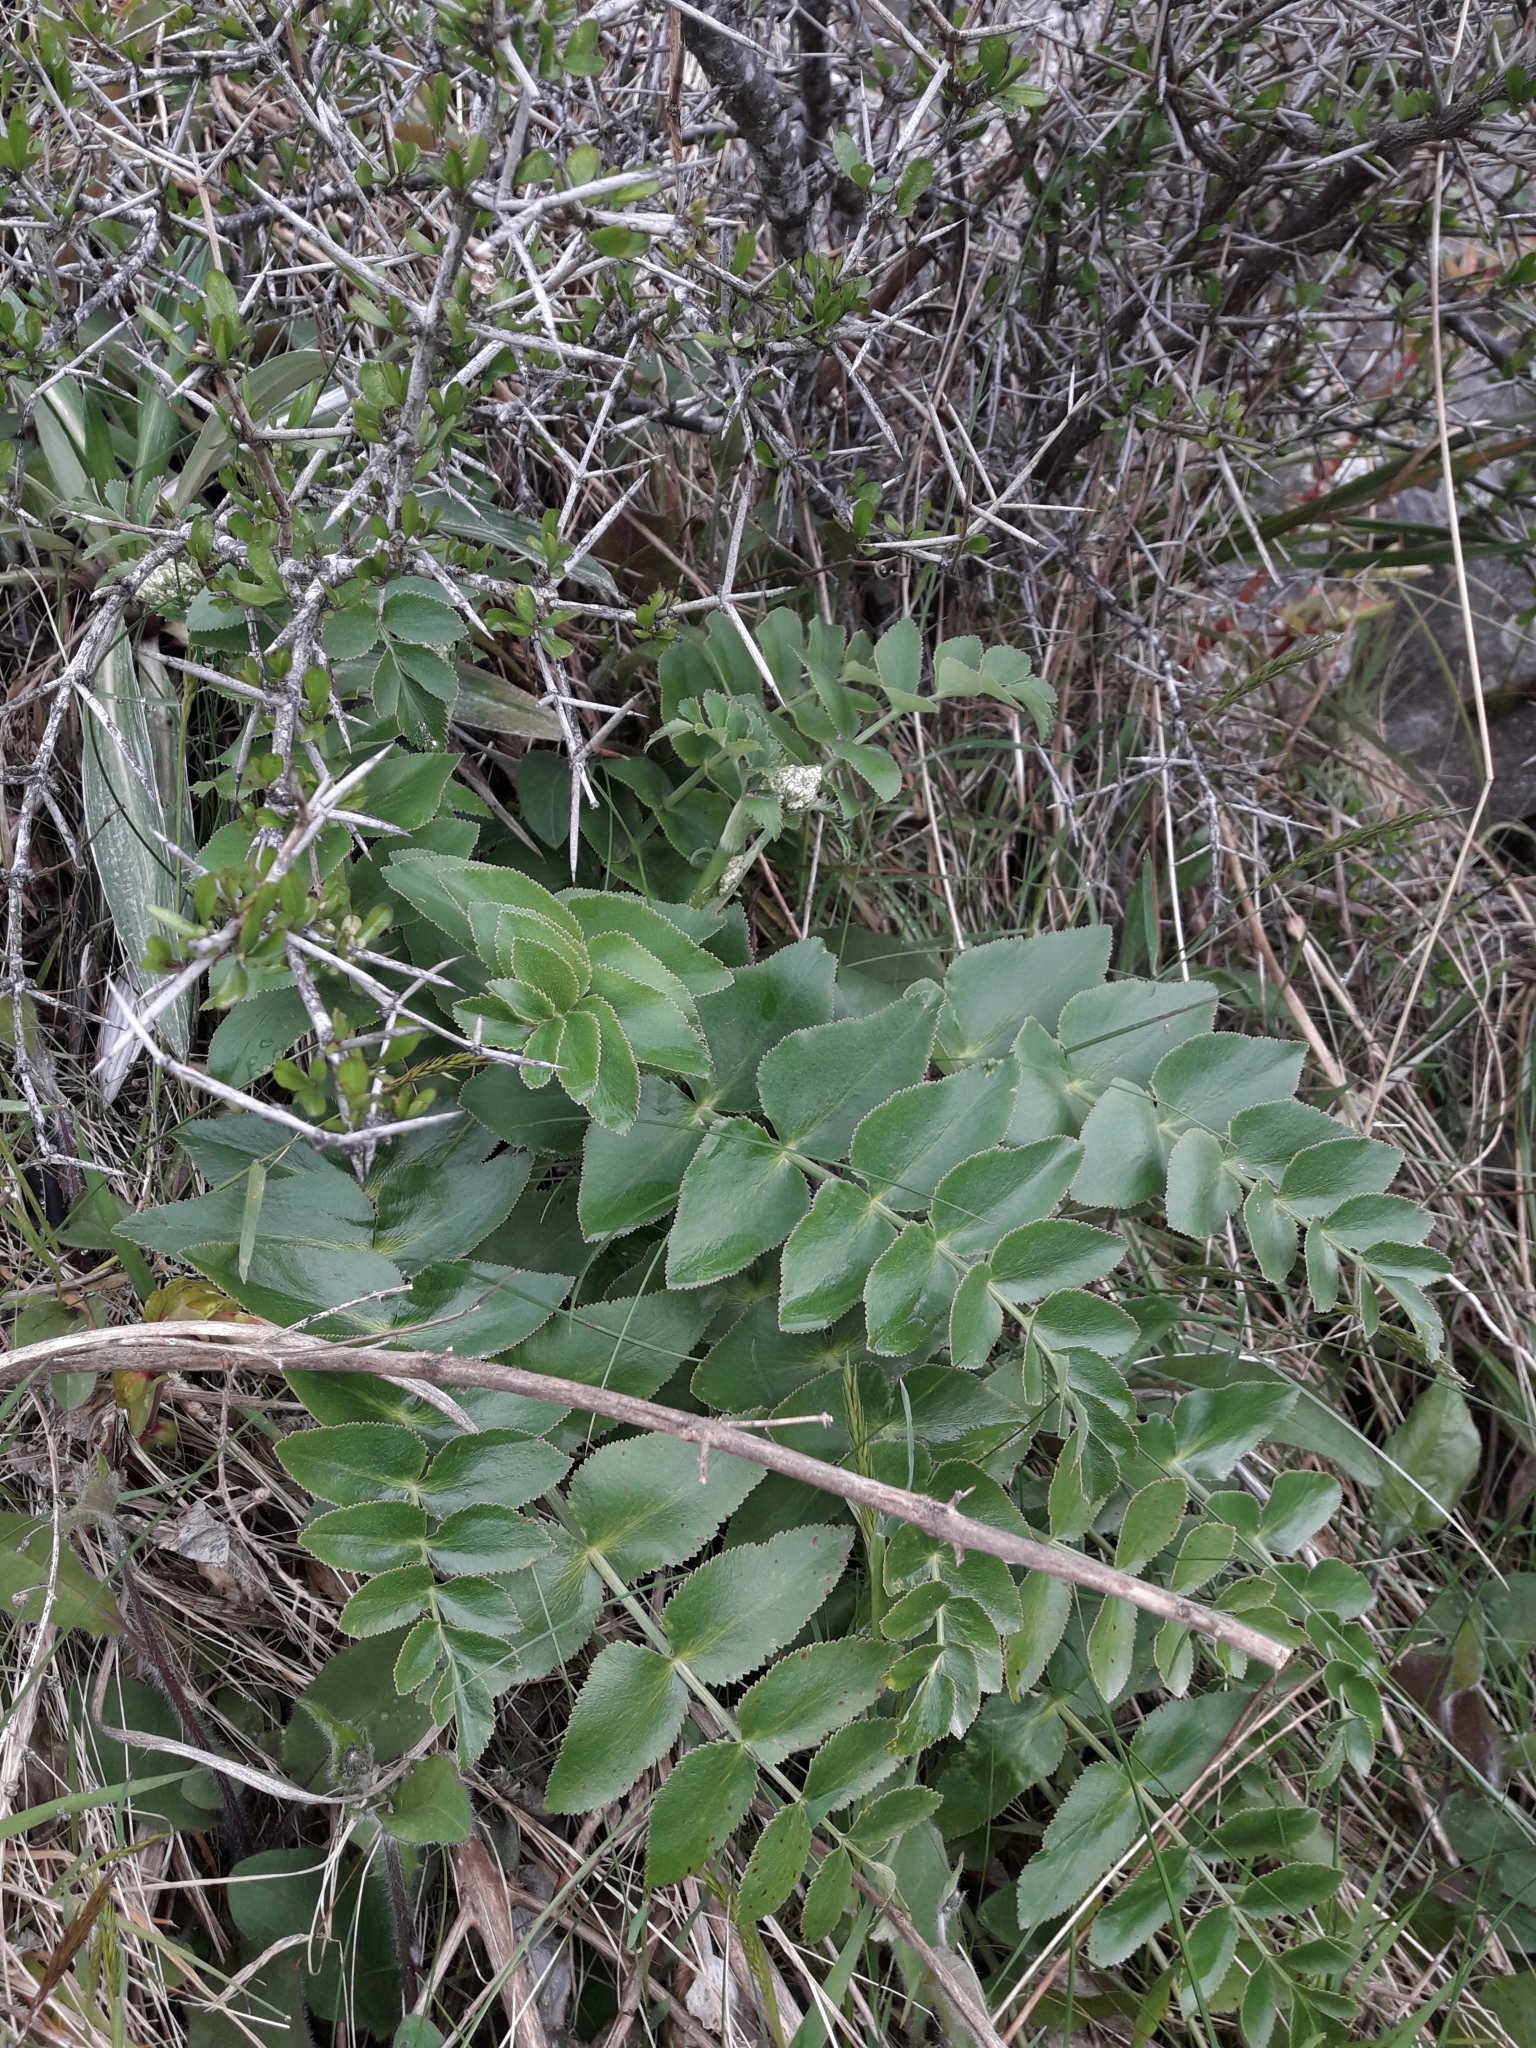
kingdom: Plantae
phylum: Tracheophyta
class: Magnoliopsida
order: Apiales
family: Apiaceae
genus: Gingidia
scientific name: Gingidia montana
